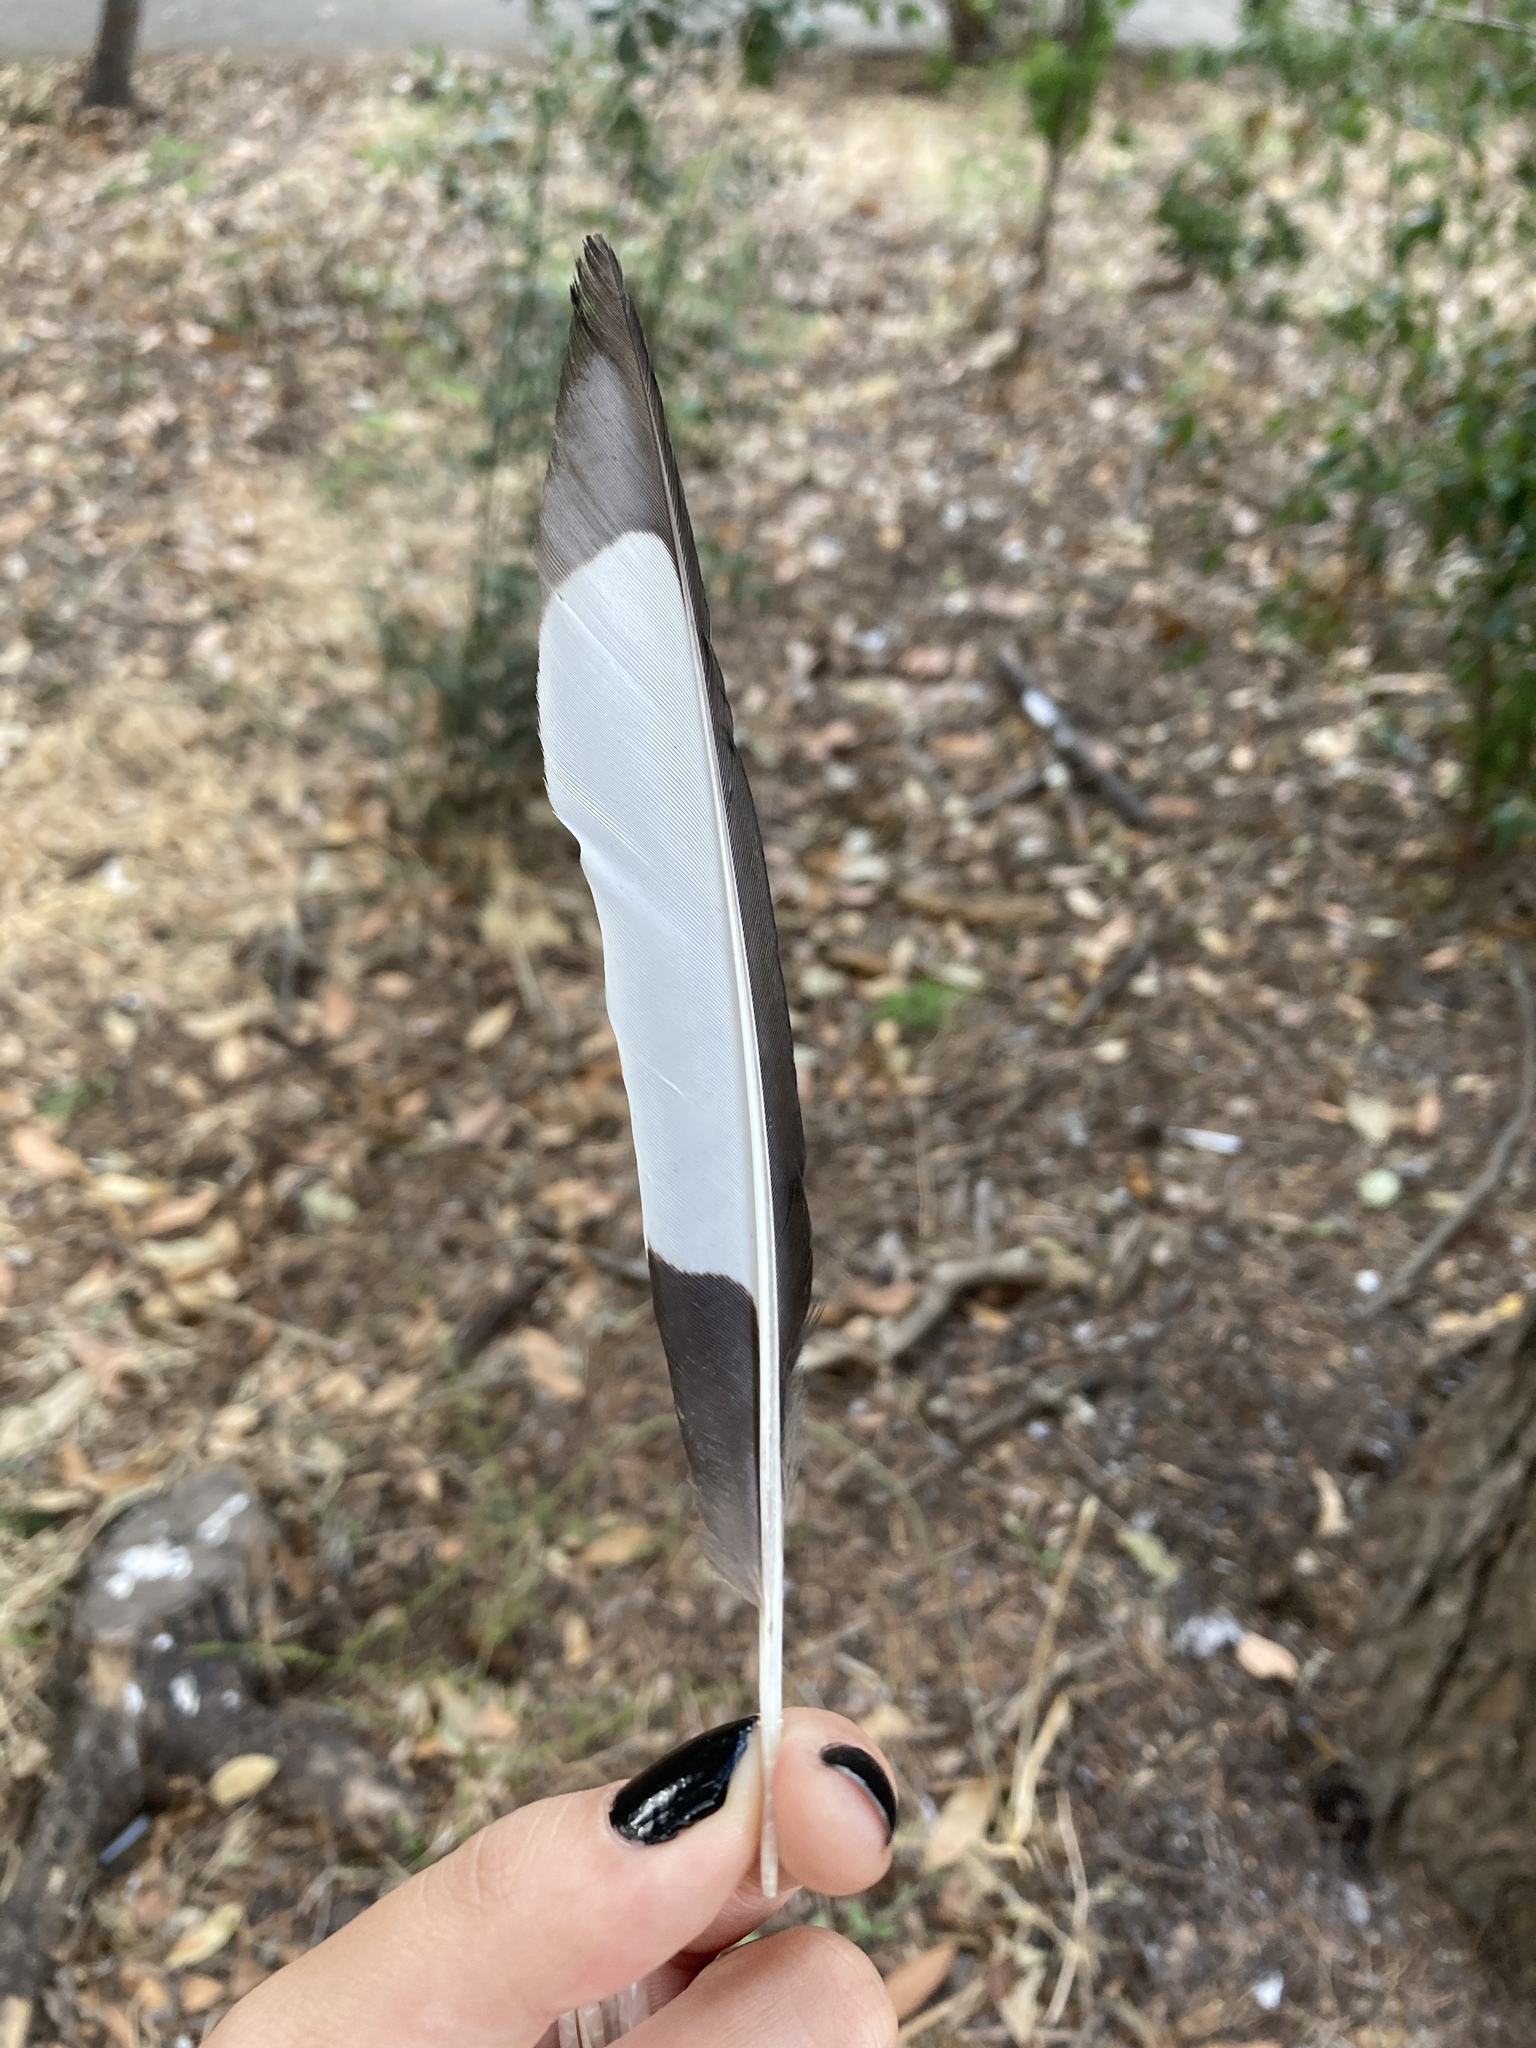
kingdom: Animalia
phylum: Chordata
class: Aves
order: Passeriformes
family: Corvidae
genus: Pica
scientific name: Pica pica
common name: Eurasian magpie
